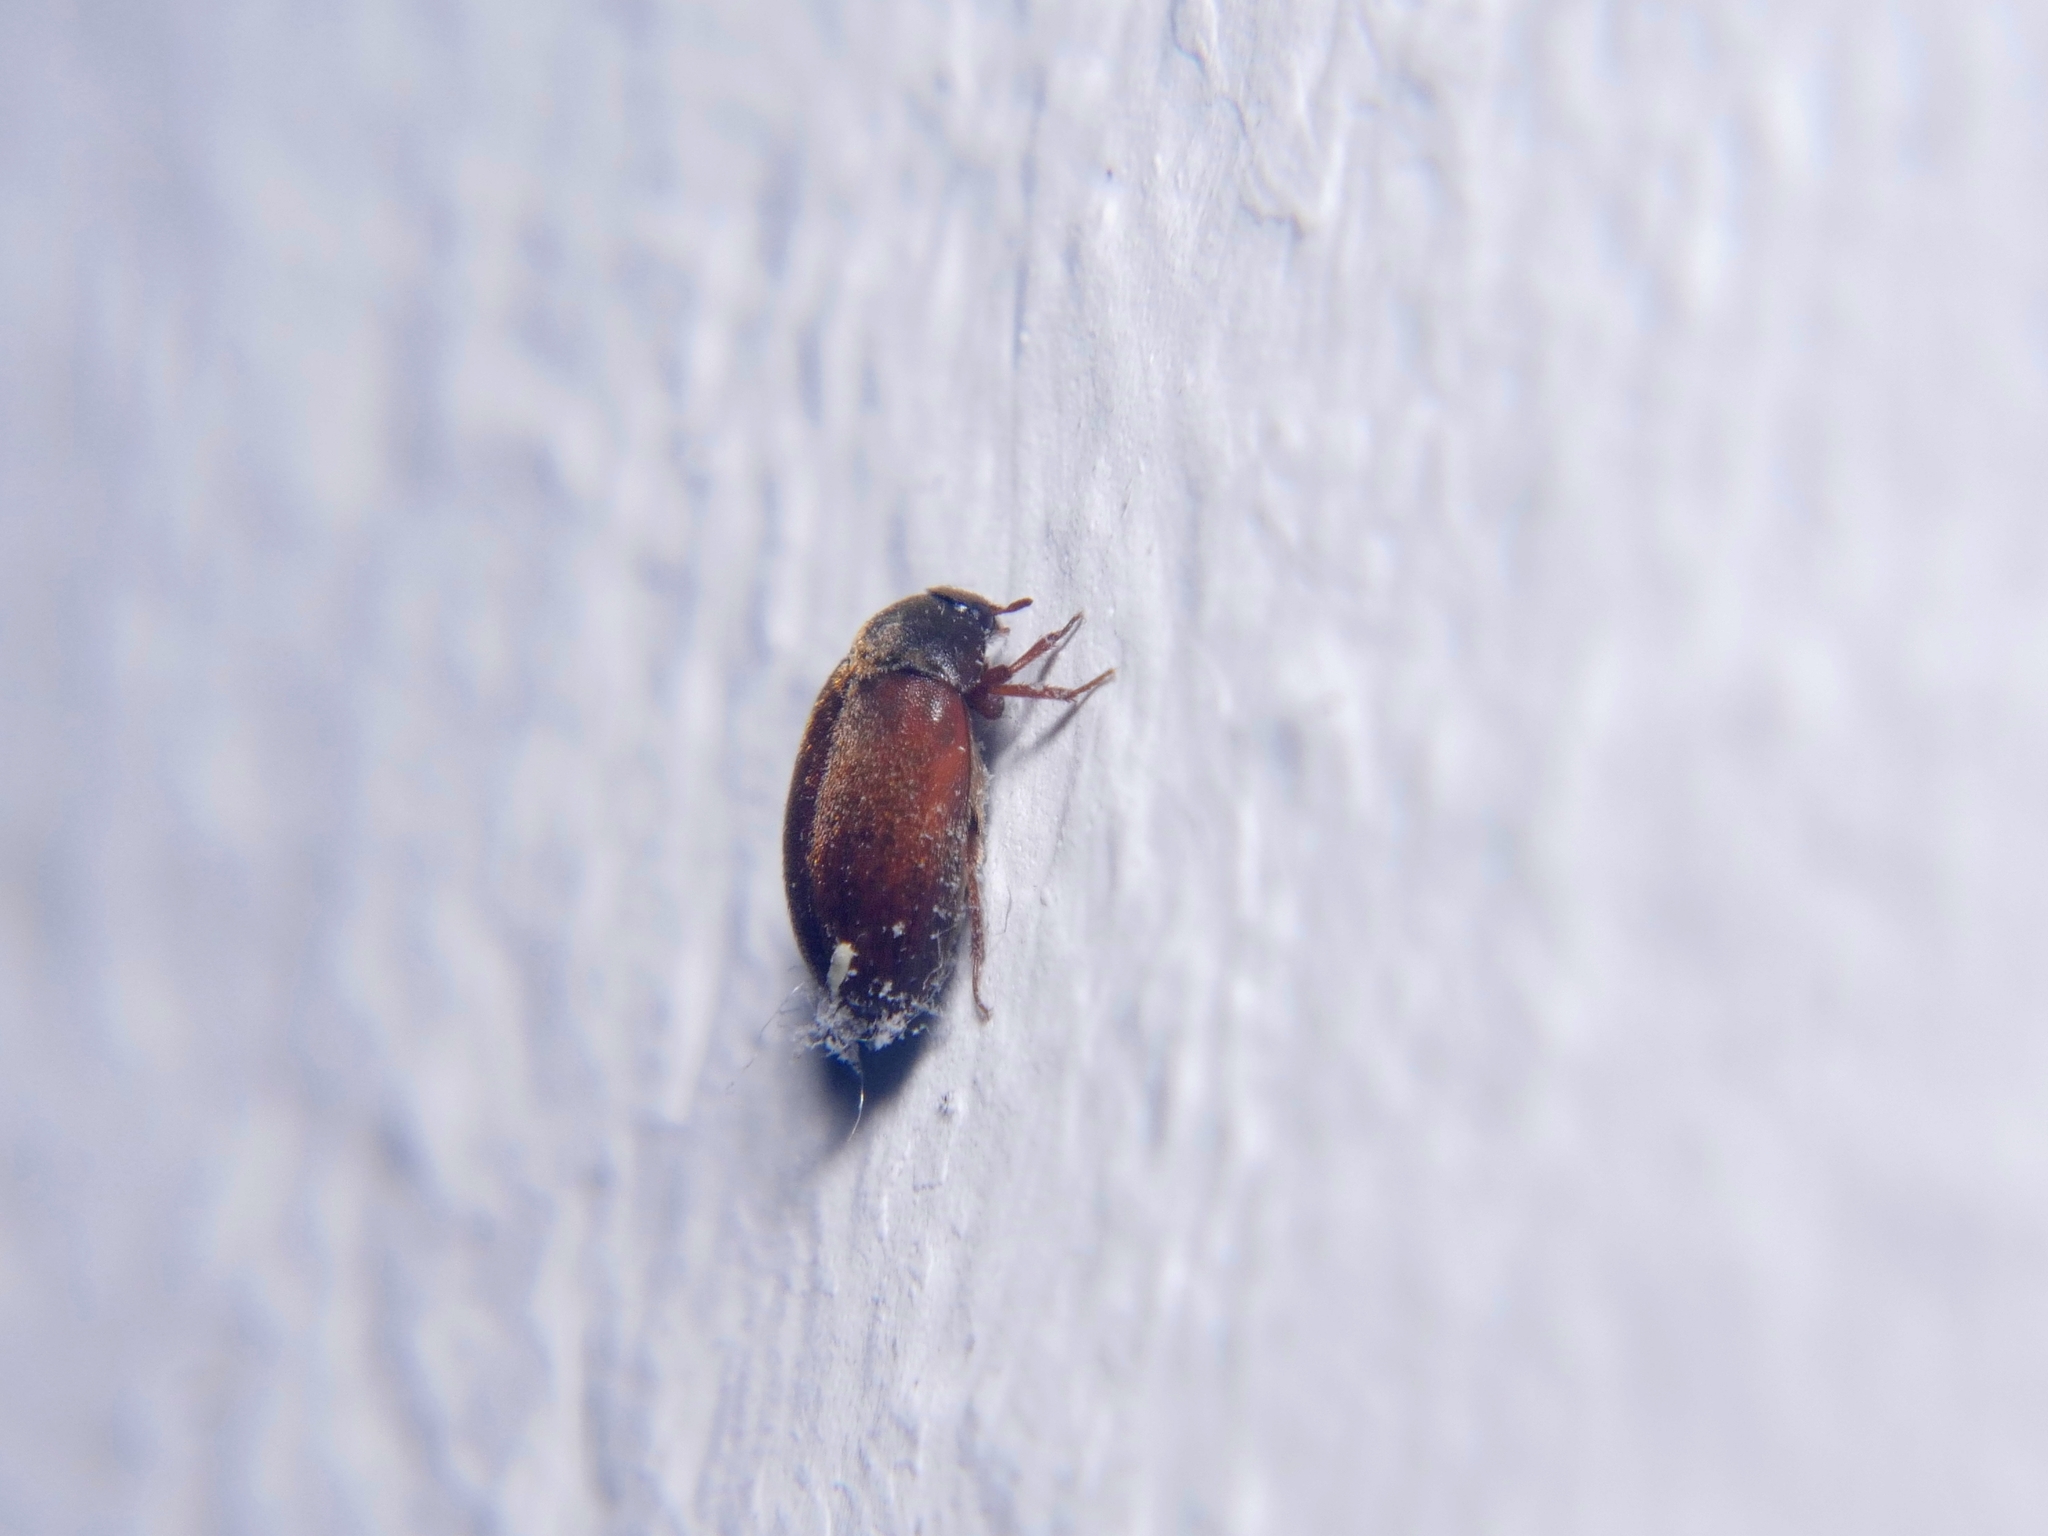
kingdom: Animalia
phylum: Arthropoda
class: Insecta
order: Coleoptera
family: Dermestidae
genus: Attagenus
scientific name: Attagenus smirnovi
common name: Brown carpet beetle
